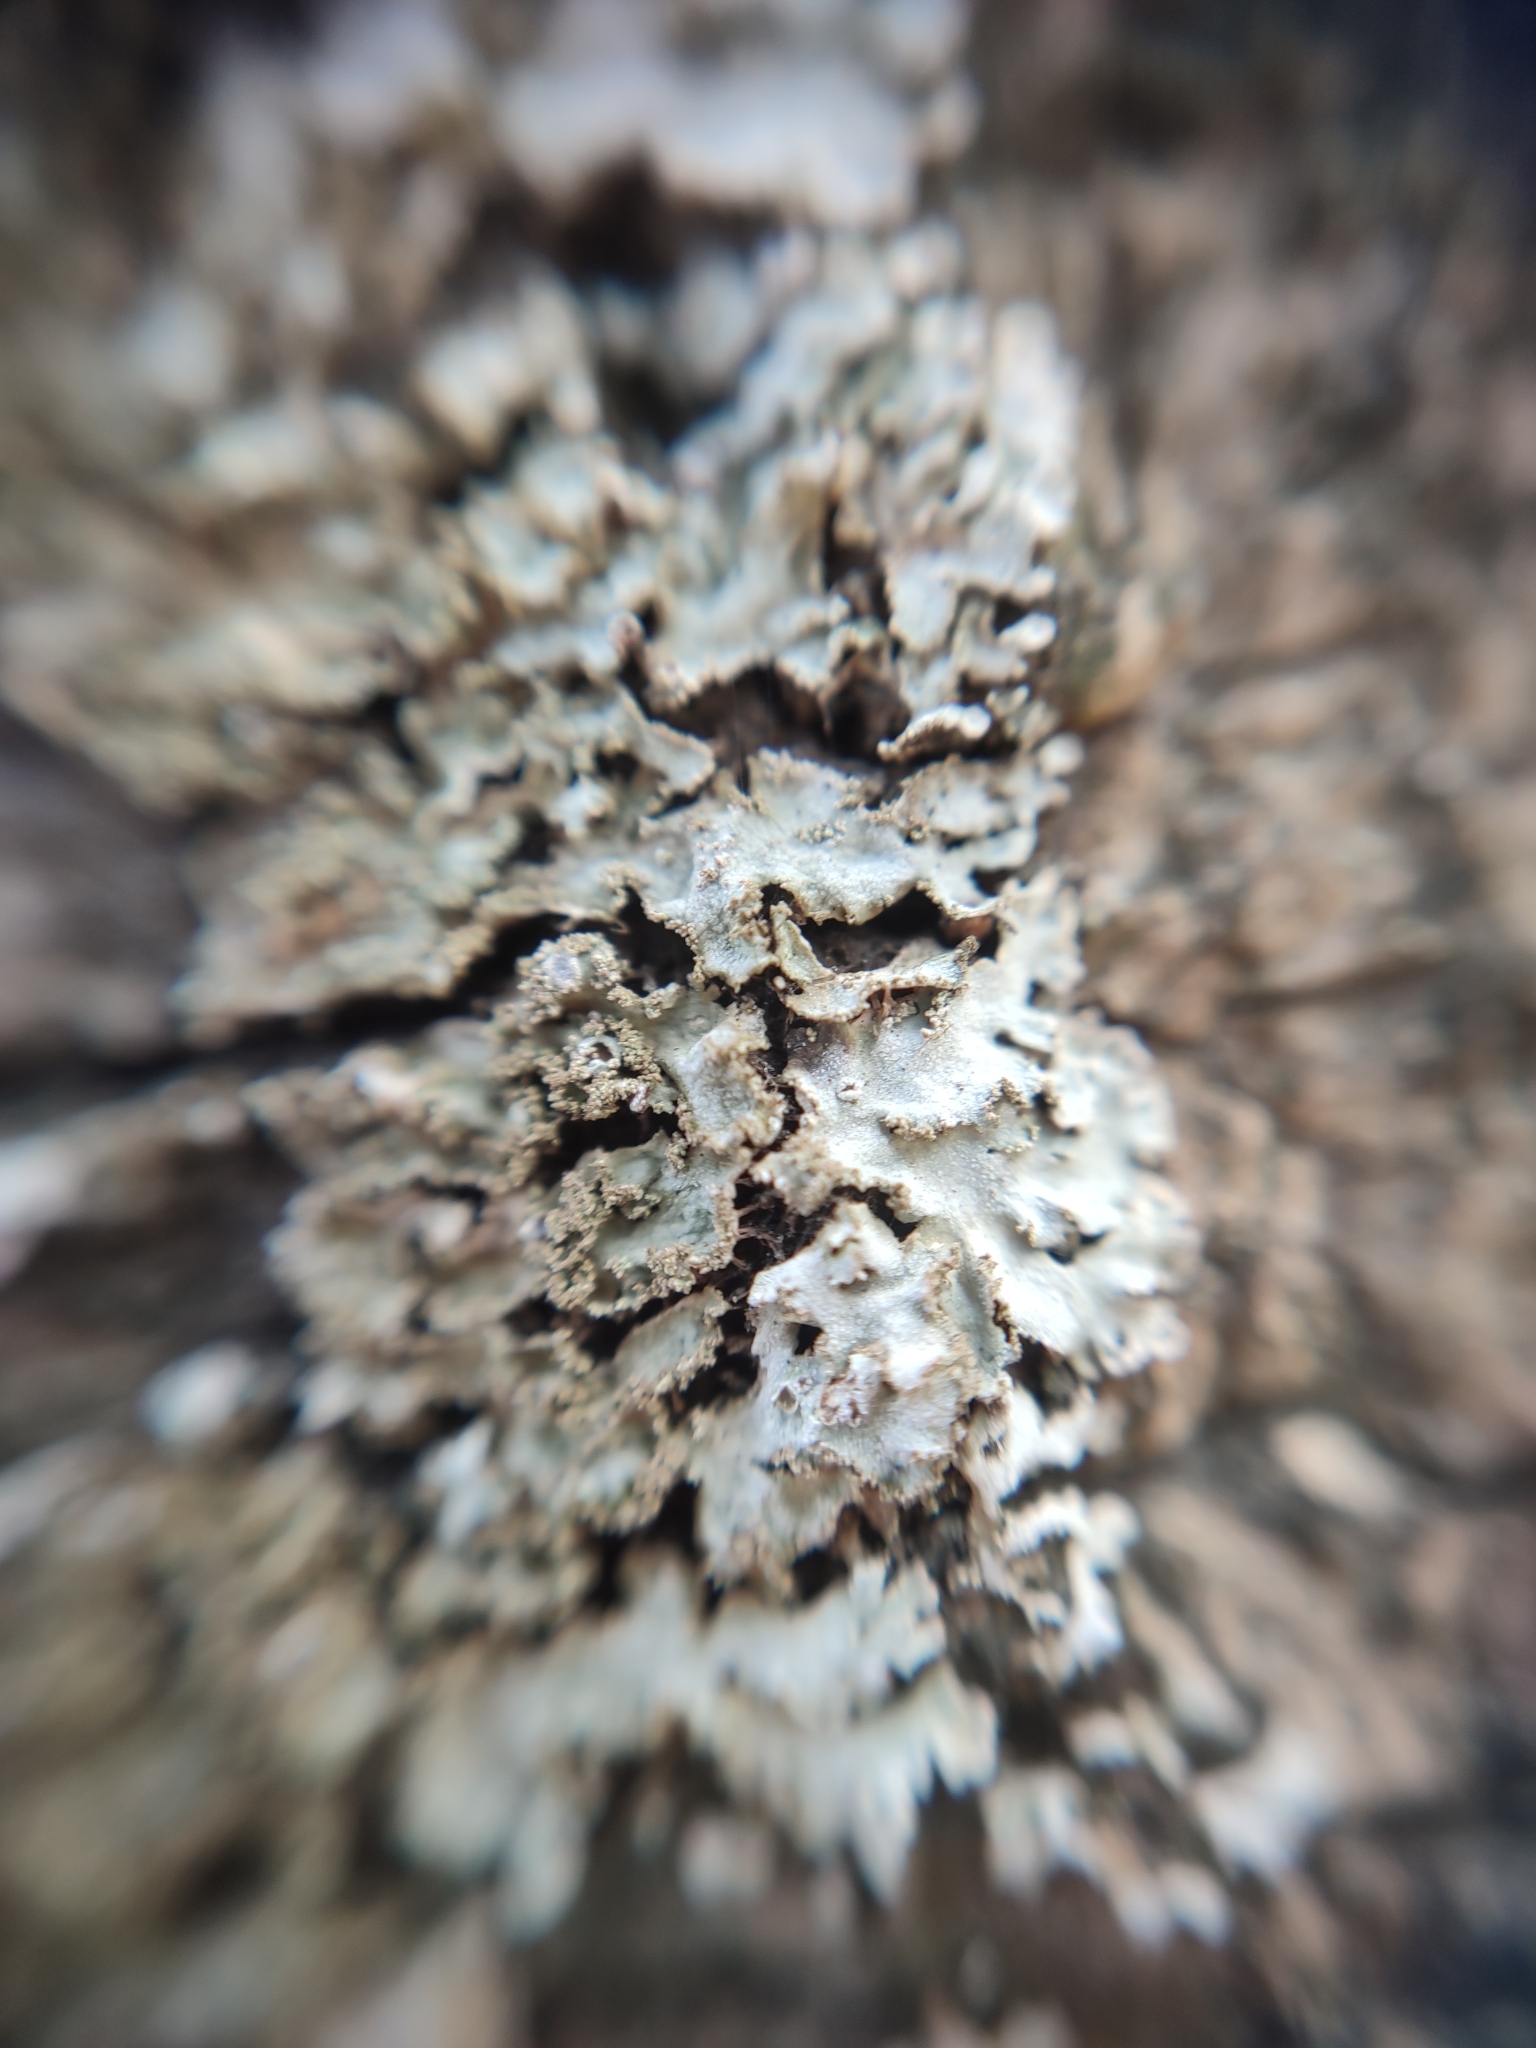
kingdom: Fungi
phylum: Ascomycota
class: Lecanoromycetes
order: Caliciales
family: Physciaceae
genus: Poeltonia
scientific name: Poeltonia grisea
